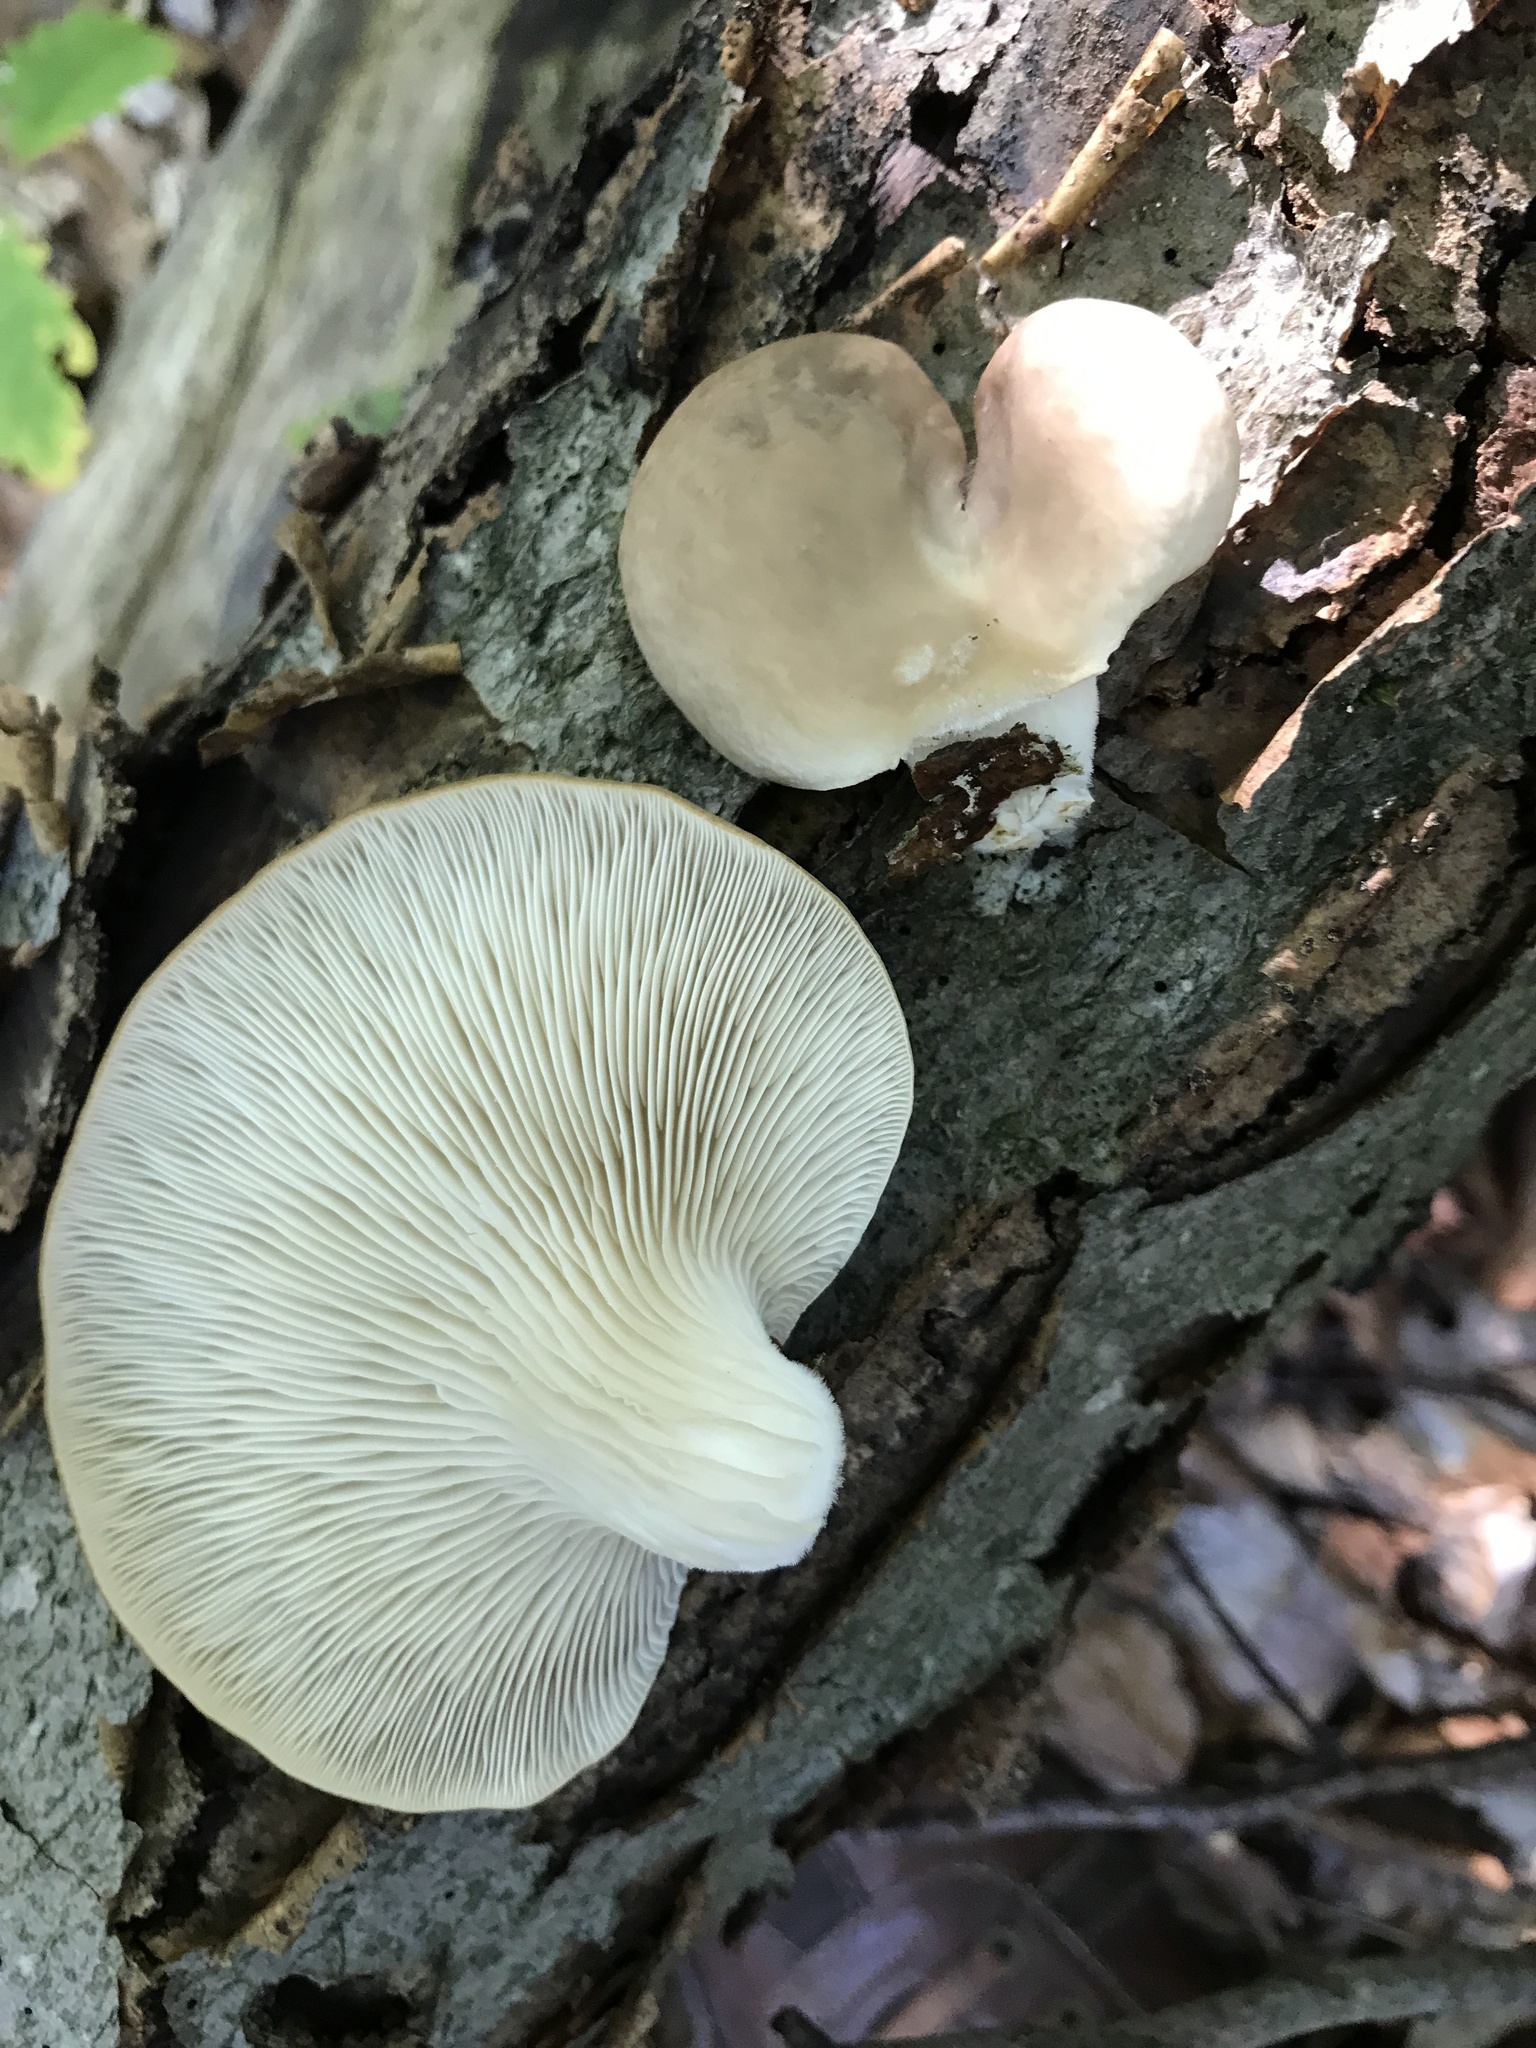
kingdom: Fungi
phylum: Basidiomycota
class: Agaricomycetes
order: Agaricales
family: Pleurotaceae
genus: Pleurotus
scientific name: Pleurotus ostreatus
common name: Oyster mushroom
